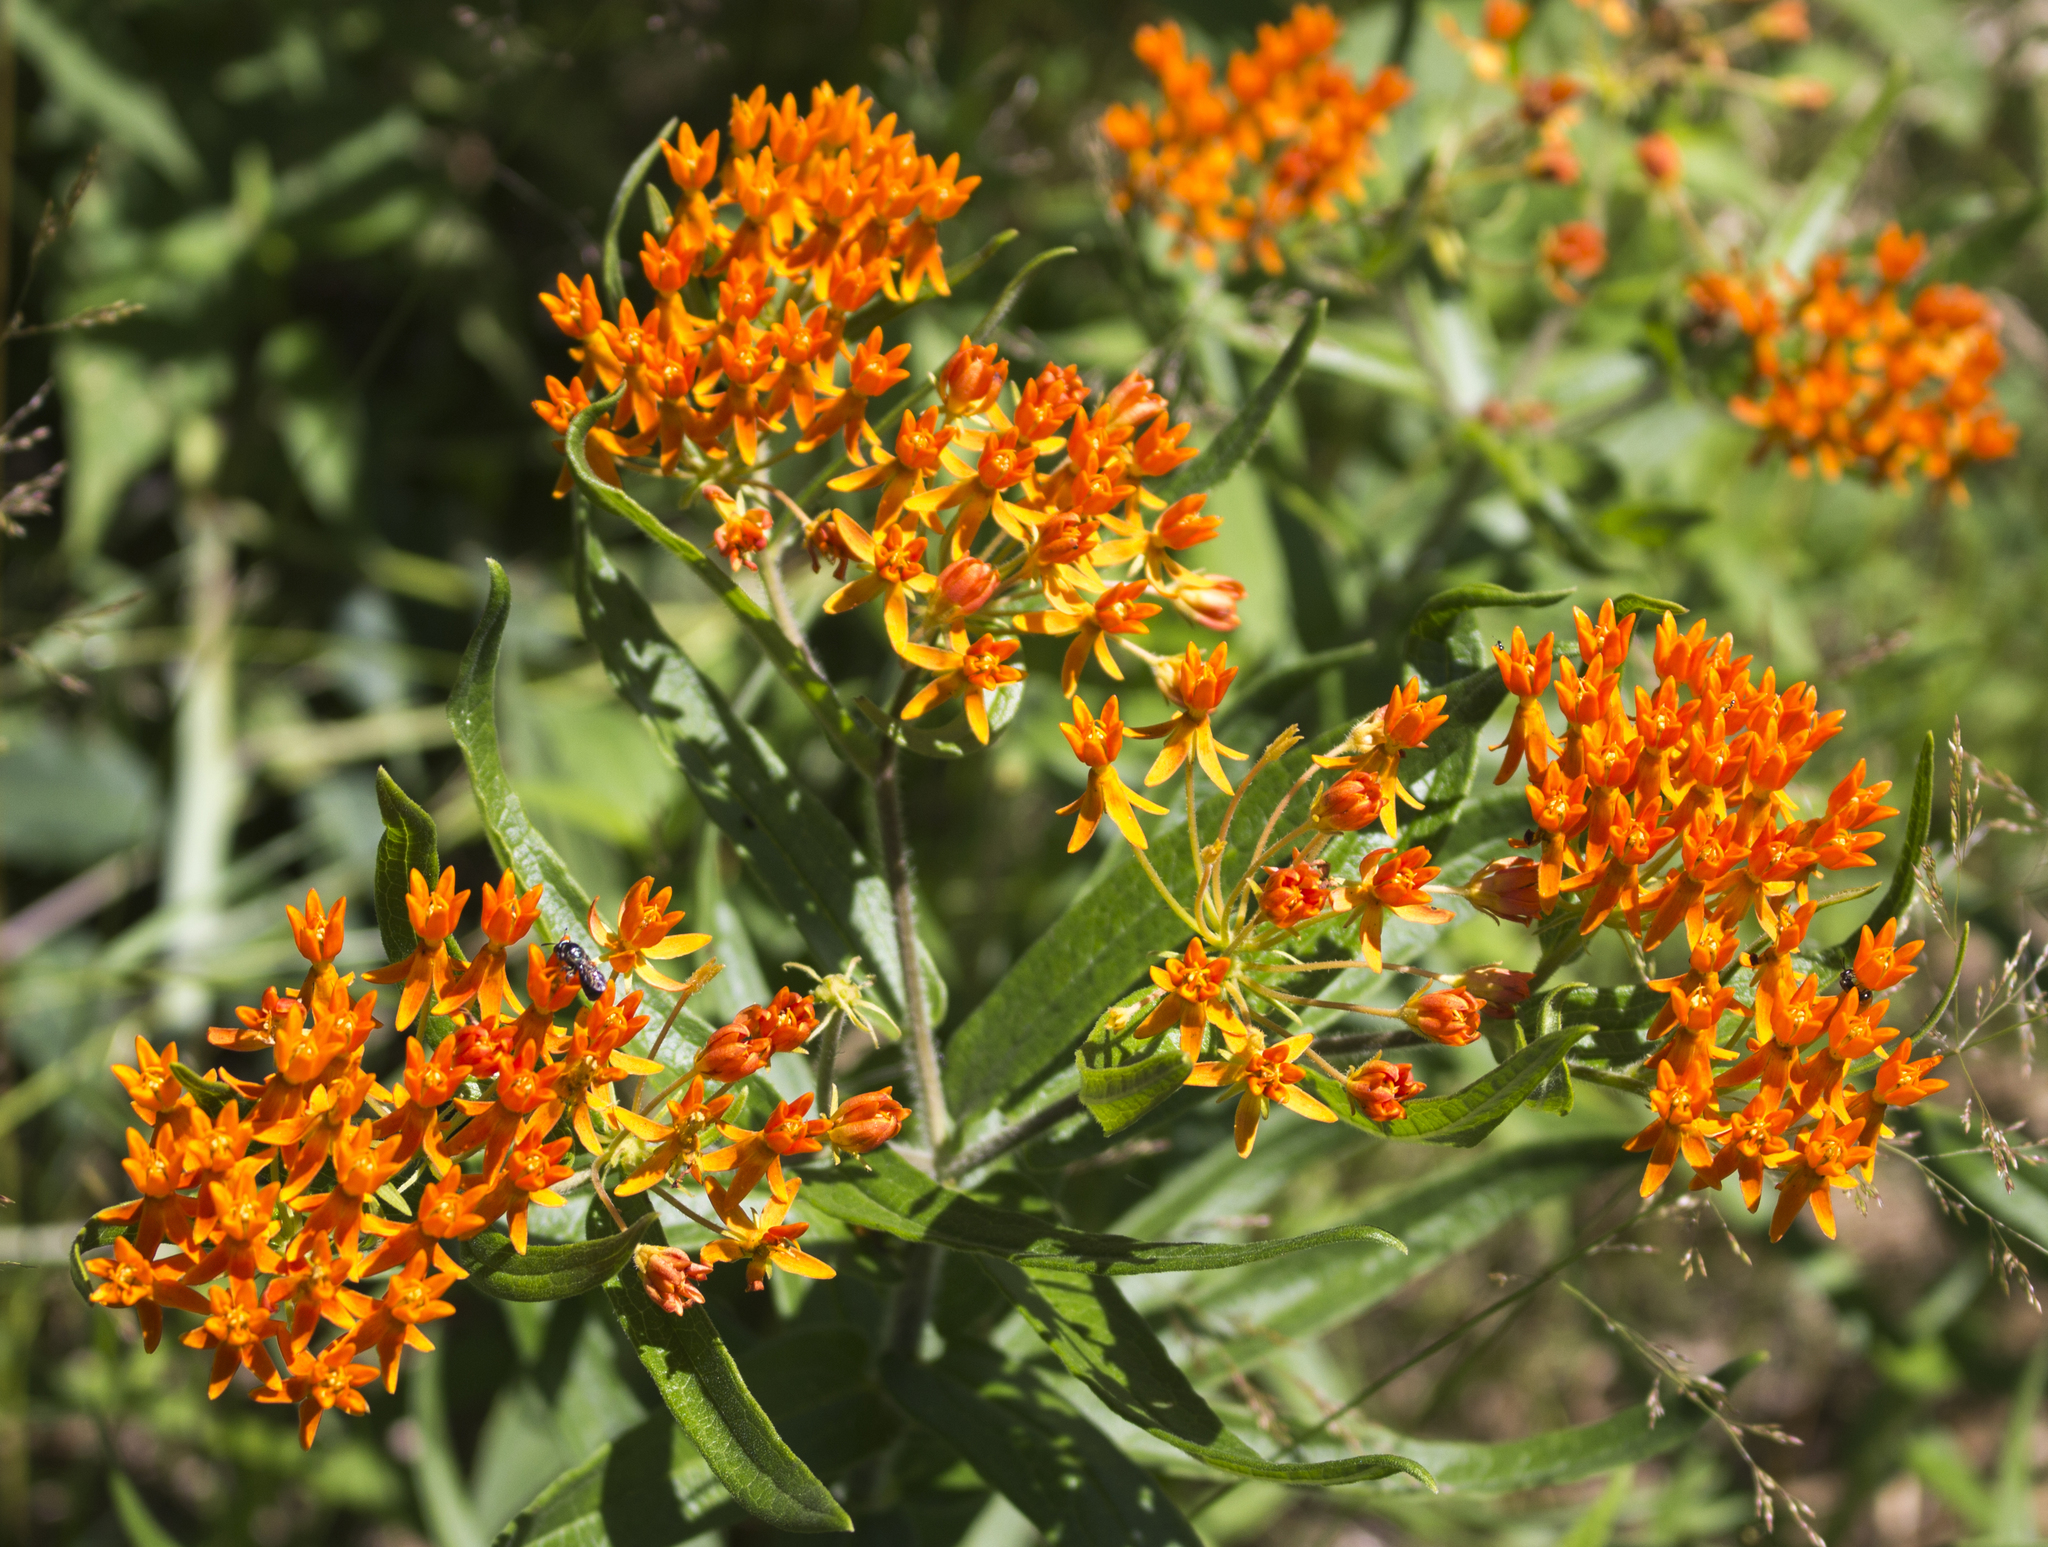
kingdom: Plantae
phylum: Tracheophyta
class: Magnoliopsida
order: Gentianales
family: Apocynaceae
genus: Asclepias
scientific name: Asclepias tuberosa
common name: Butterfly milkweed
